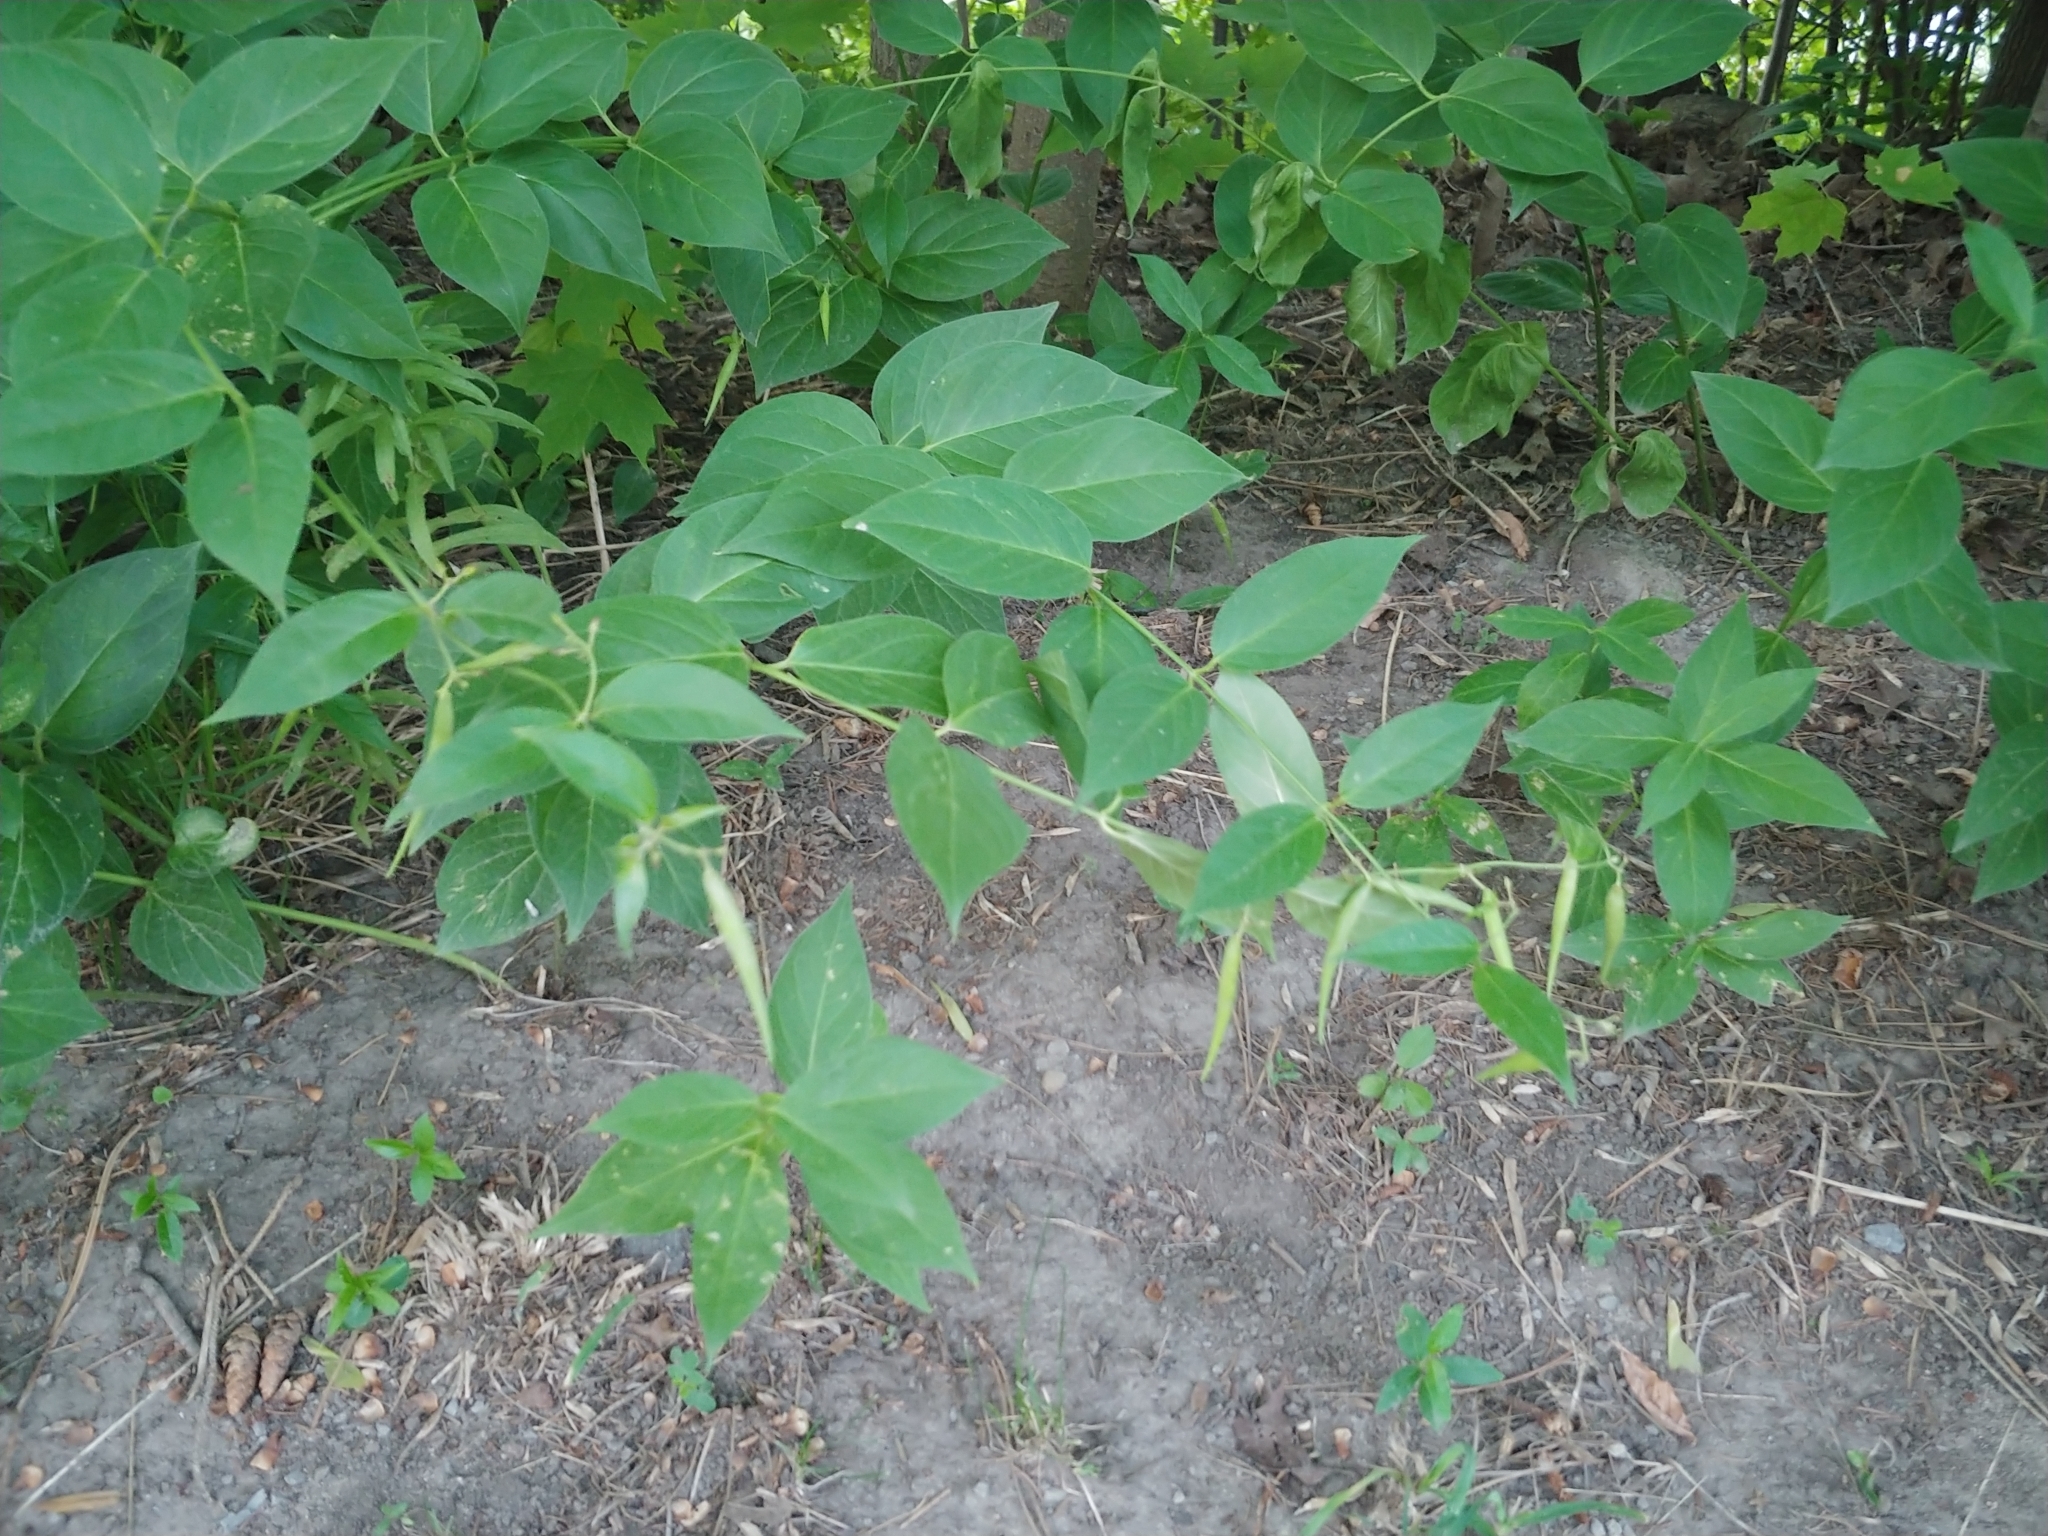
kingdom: Plantae
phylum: Tracheophyta
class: Magnoliopsida
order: Gentianales
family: Apocynaceae
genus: Vincetoxicum
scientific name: Vincetoxicum rossicum
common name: Dog-strangling vine
